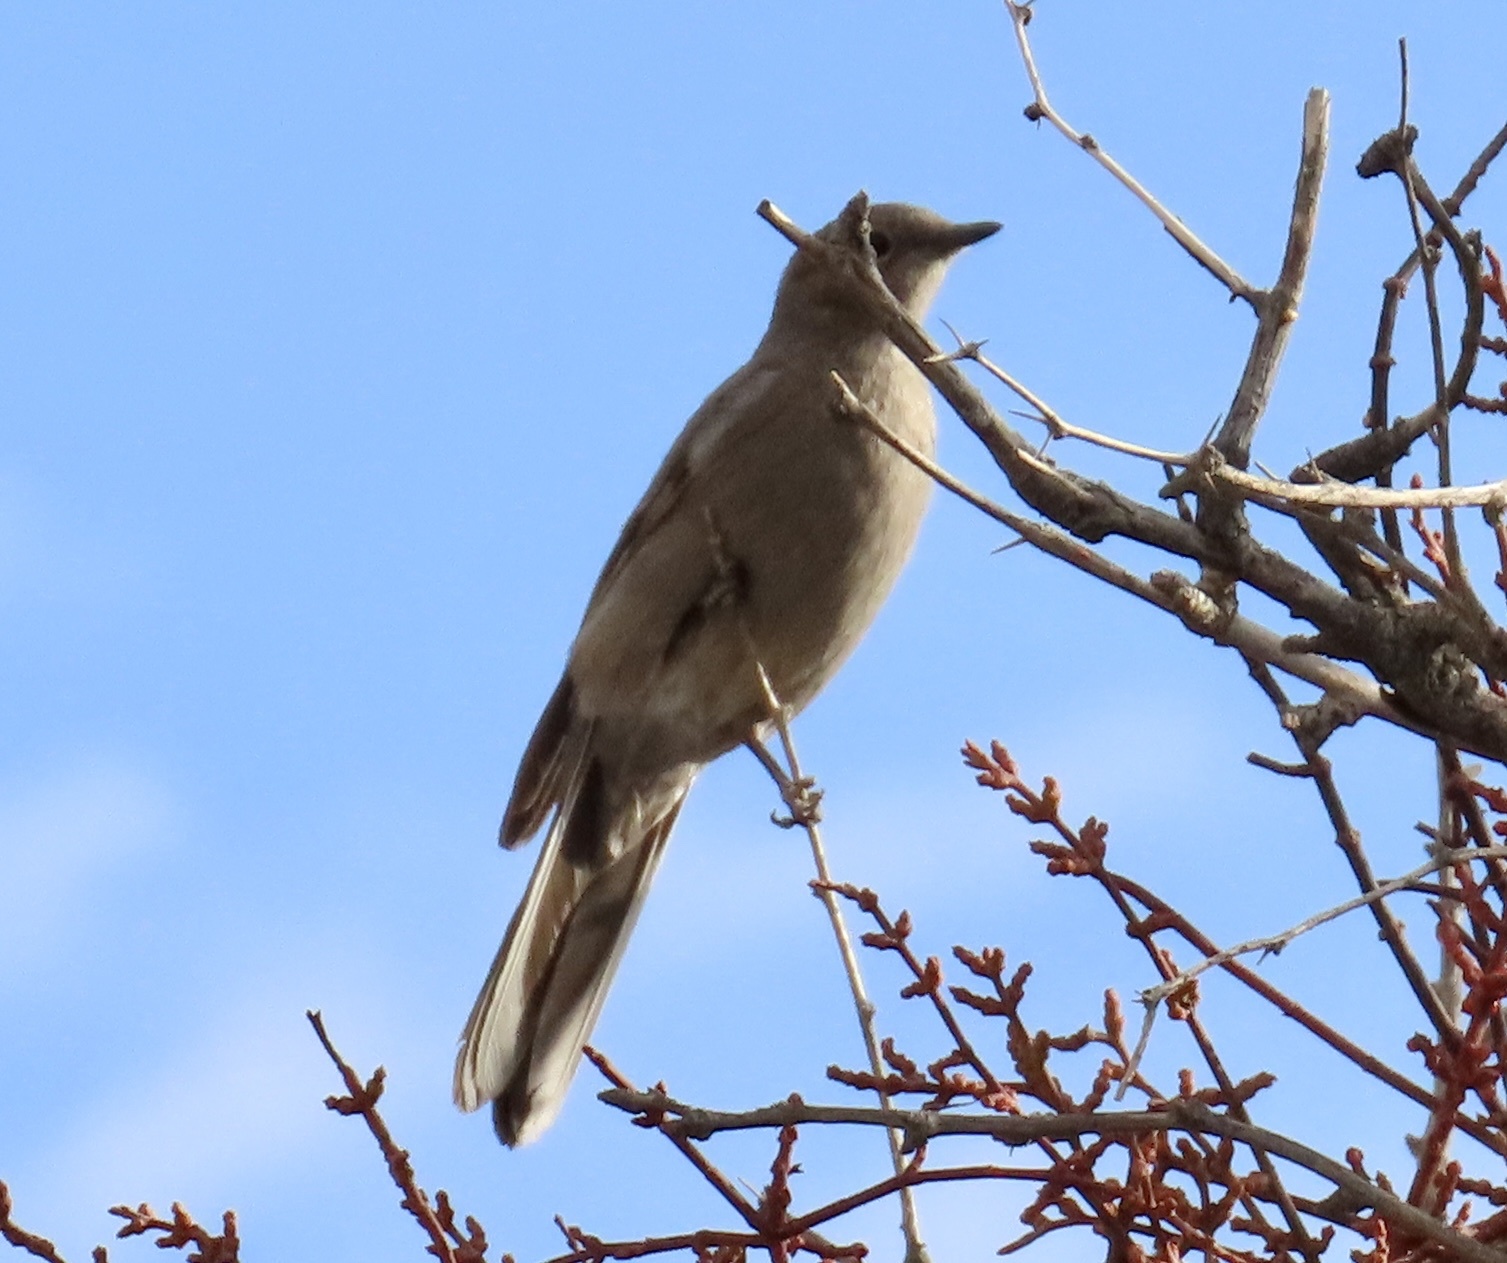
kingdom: Animalia
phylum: Chordata
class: Aves
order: Passeriformes
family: Turdidae
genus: Myadestes
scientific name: Myadestes townsendi
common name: Townsend's solitaire
